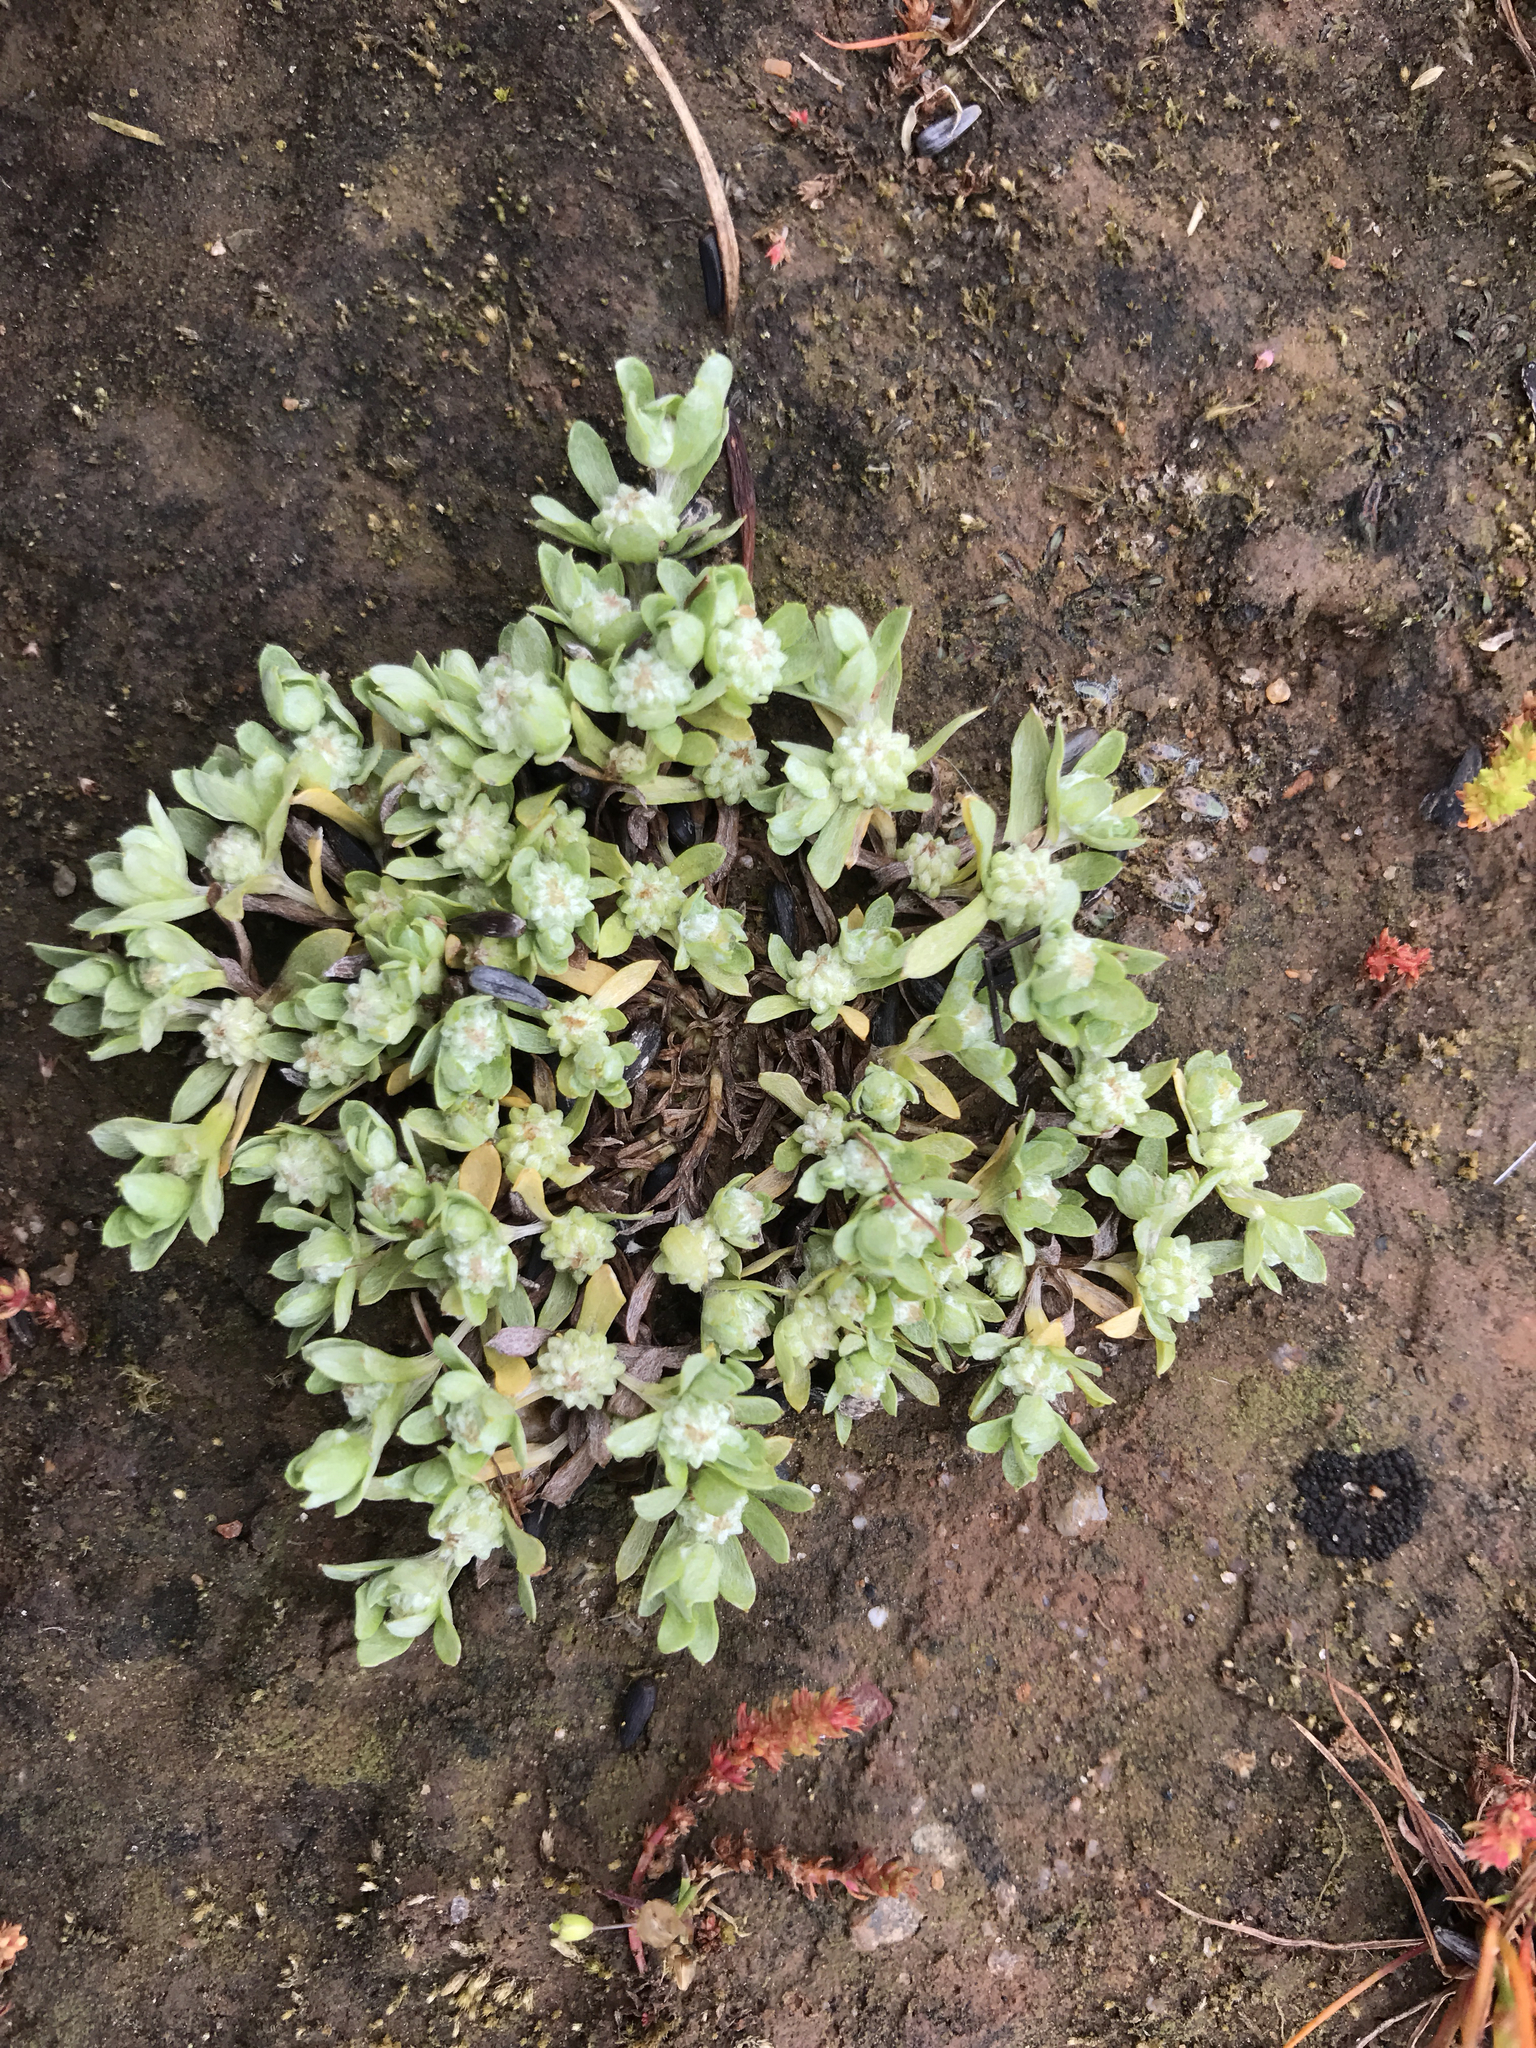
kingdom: Plantae
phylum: Tracheophyta
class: Magnoliopsida
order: Asterales
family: Asteraceae
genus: Psilocarphus
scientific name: Psilocarphus tenellus
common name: Slender woolly-marbles
